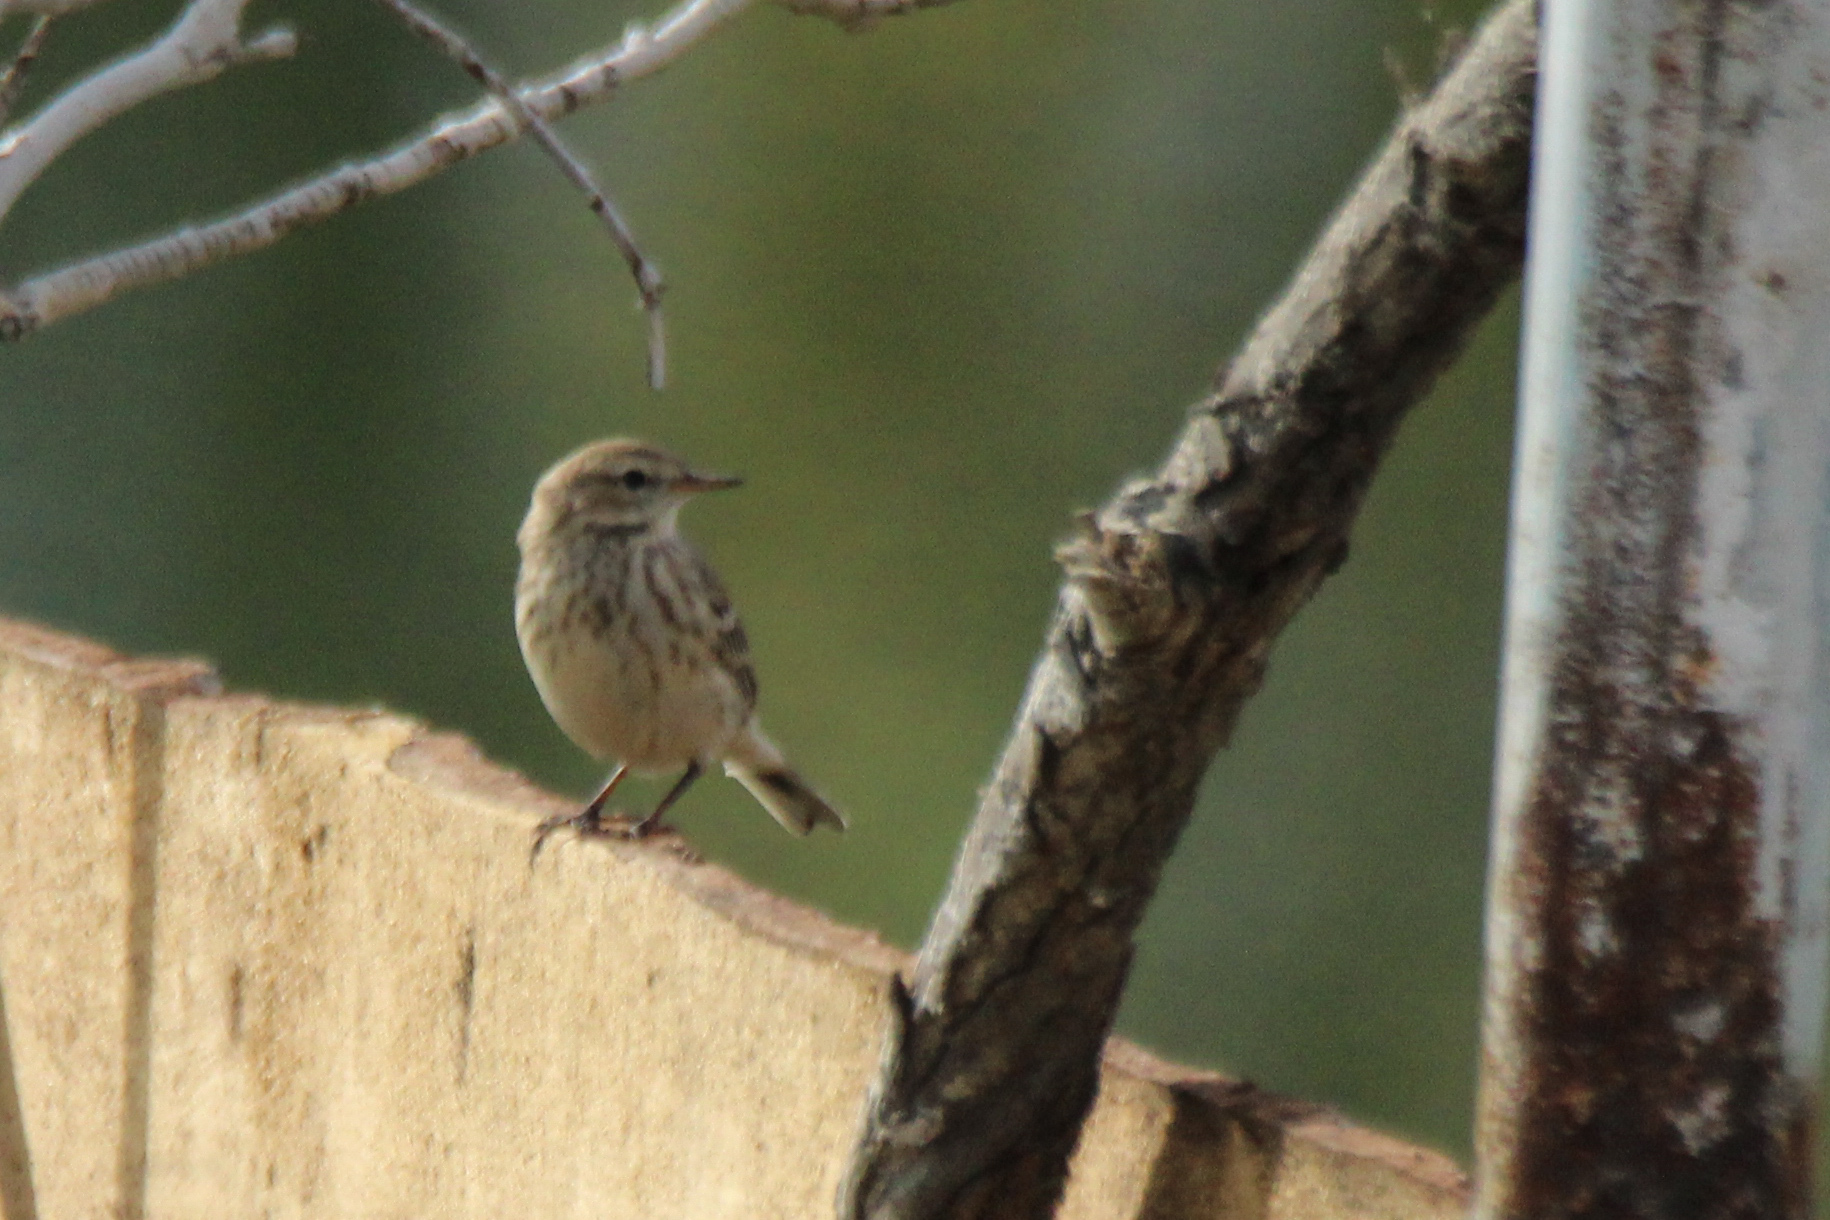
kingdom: Animalia
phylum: Chordata
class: Aves
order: Passeriformes
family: Motacillidae
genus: Anthus
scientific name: Anthus spinoletta
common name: Water pipit
